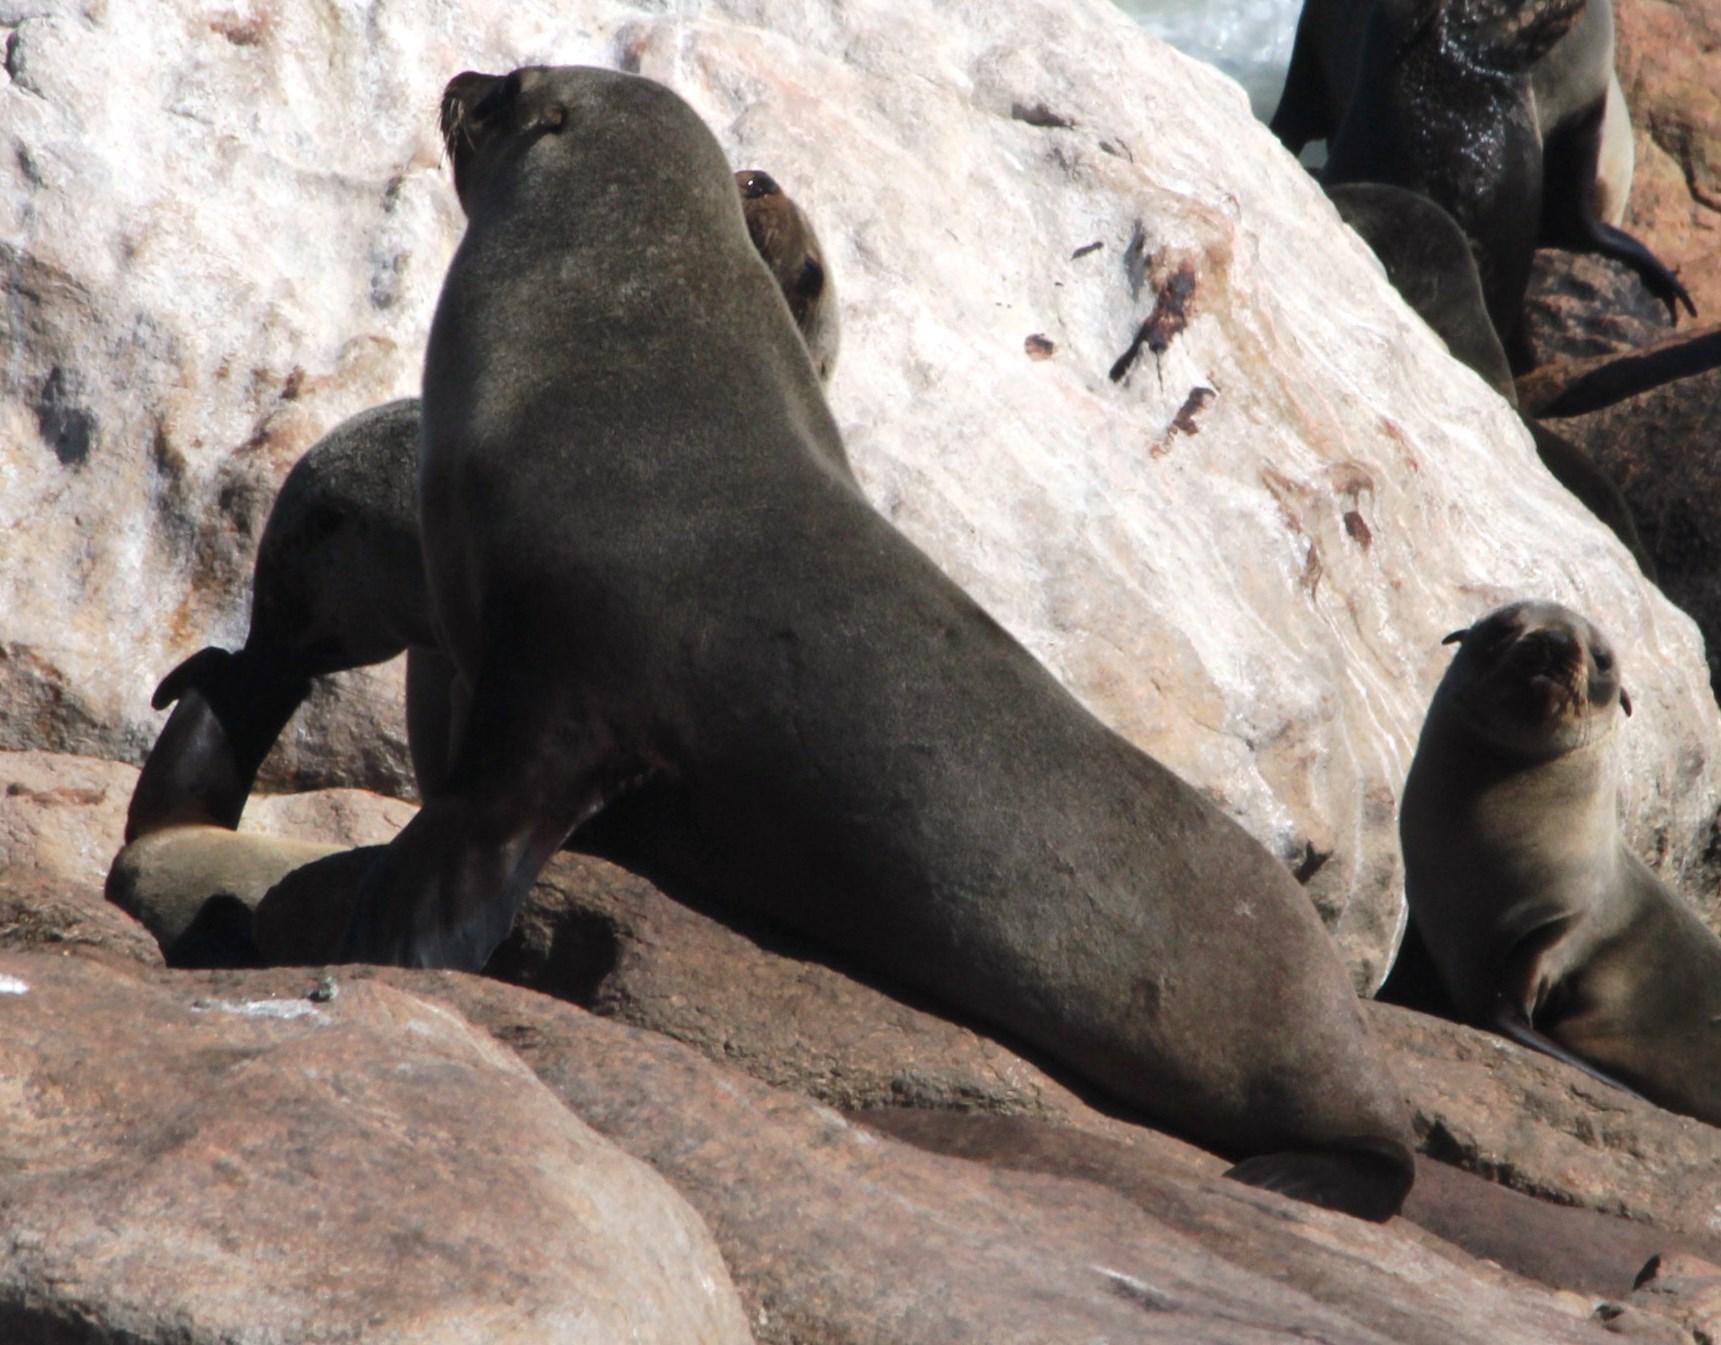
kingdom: Animalia
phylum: Chordata
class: Mammalia
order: Carnivora
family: Otariidae
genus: Arctocephalus
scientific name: Arctocephalus pusillus
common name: Brown fur seal
